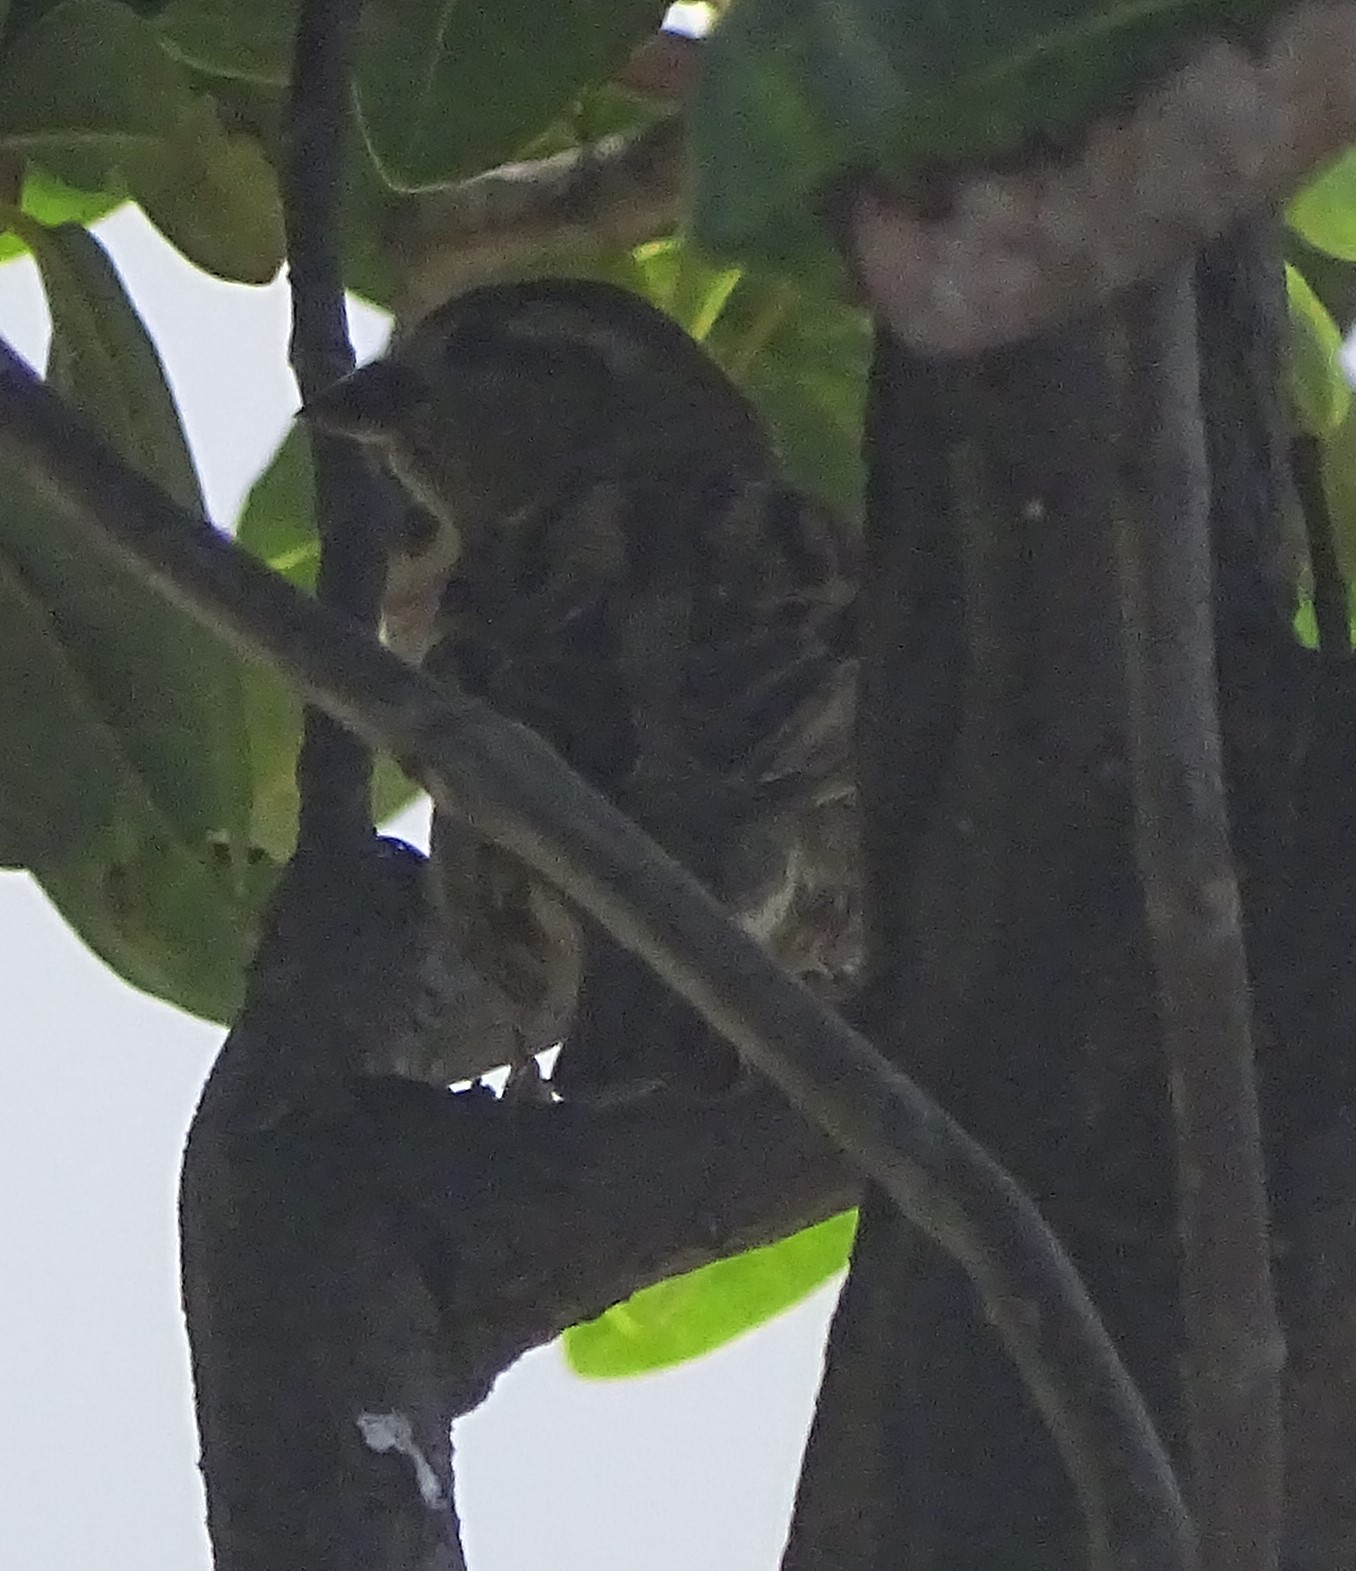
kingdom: Animalia
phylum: Chordata
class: Aves
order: Passeriformes
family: Passeridae
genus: Passer
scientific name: Passer domesticus
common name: House sparrow
